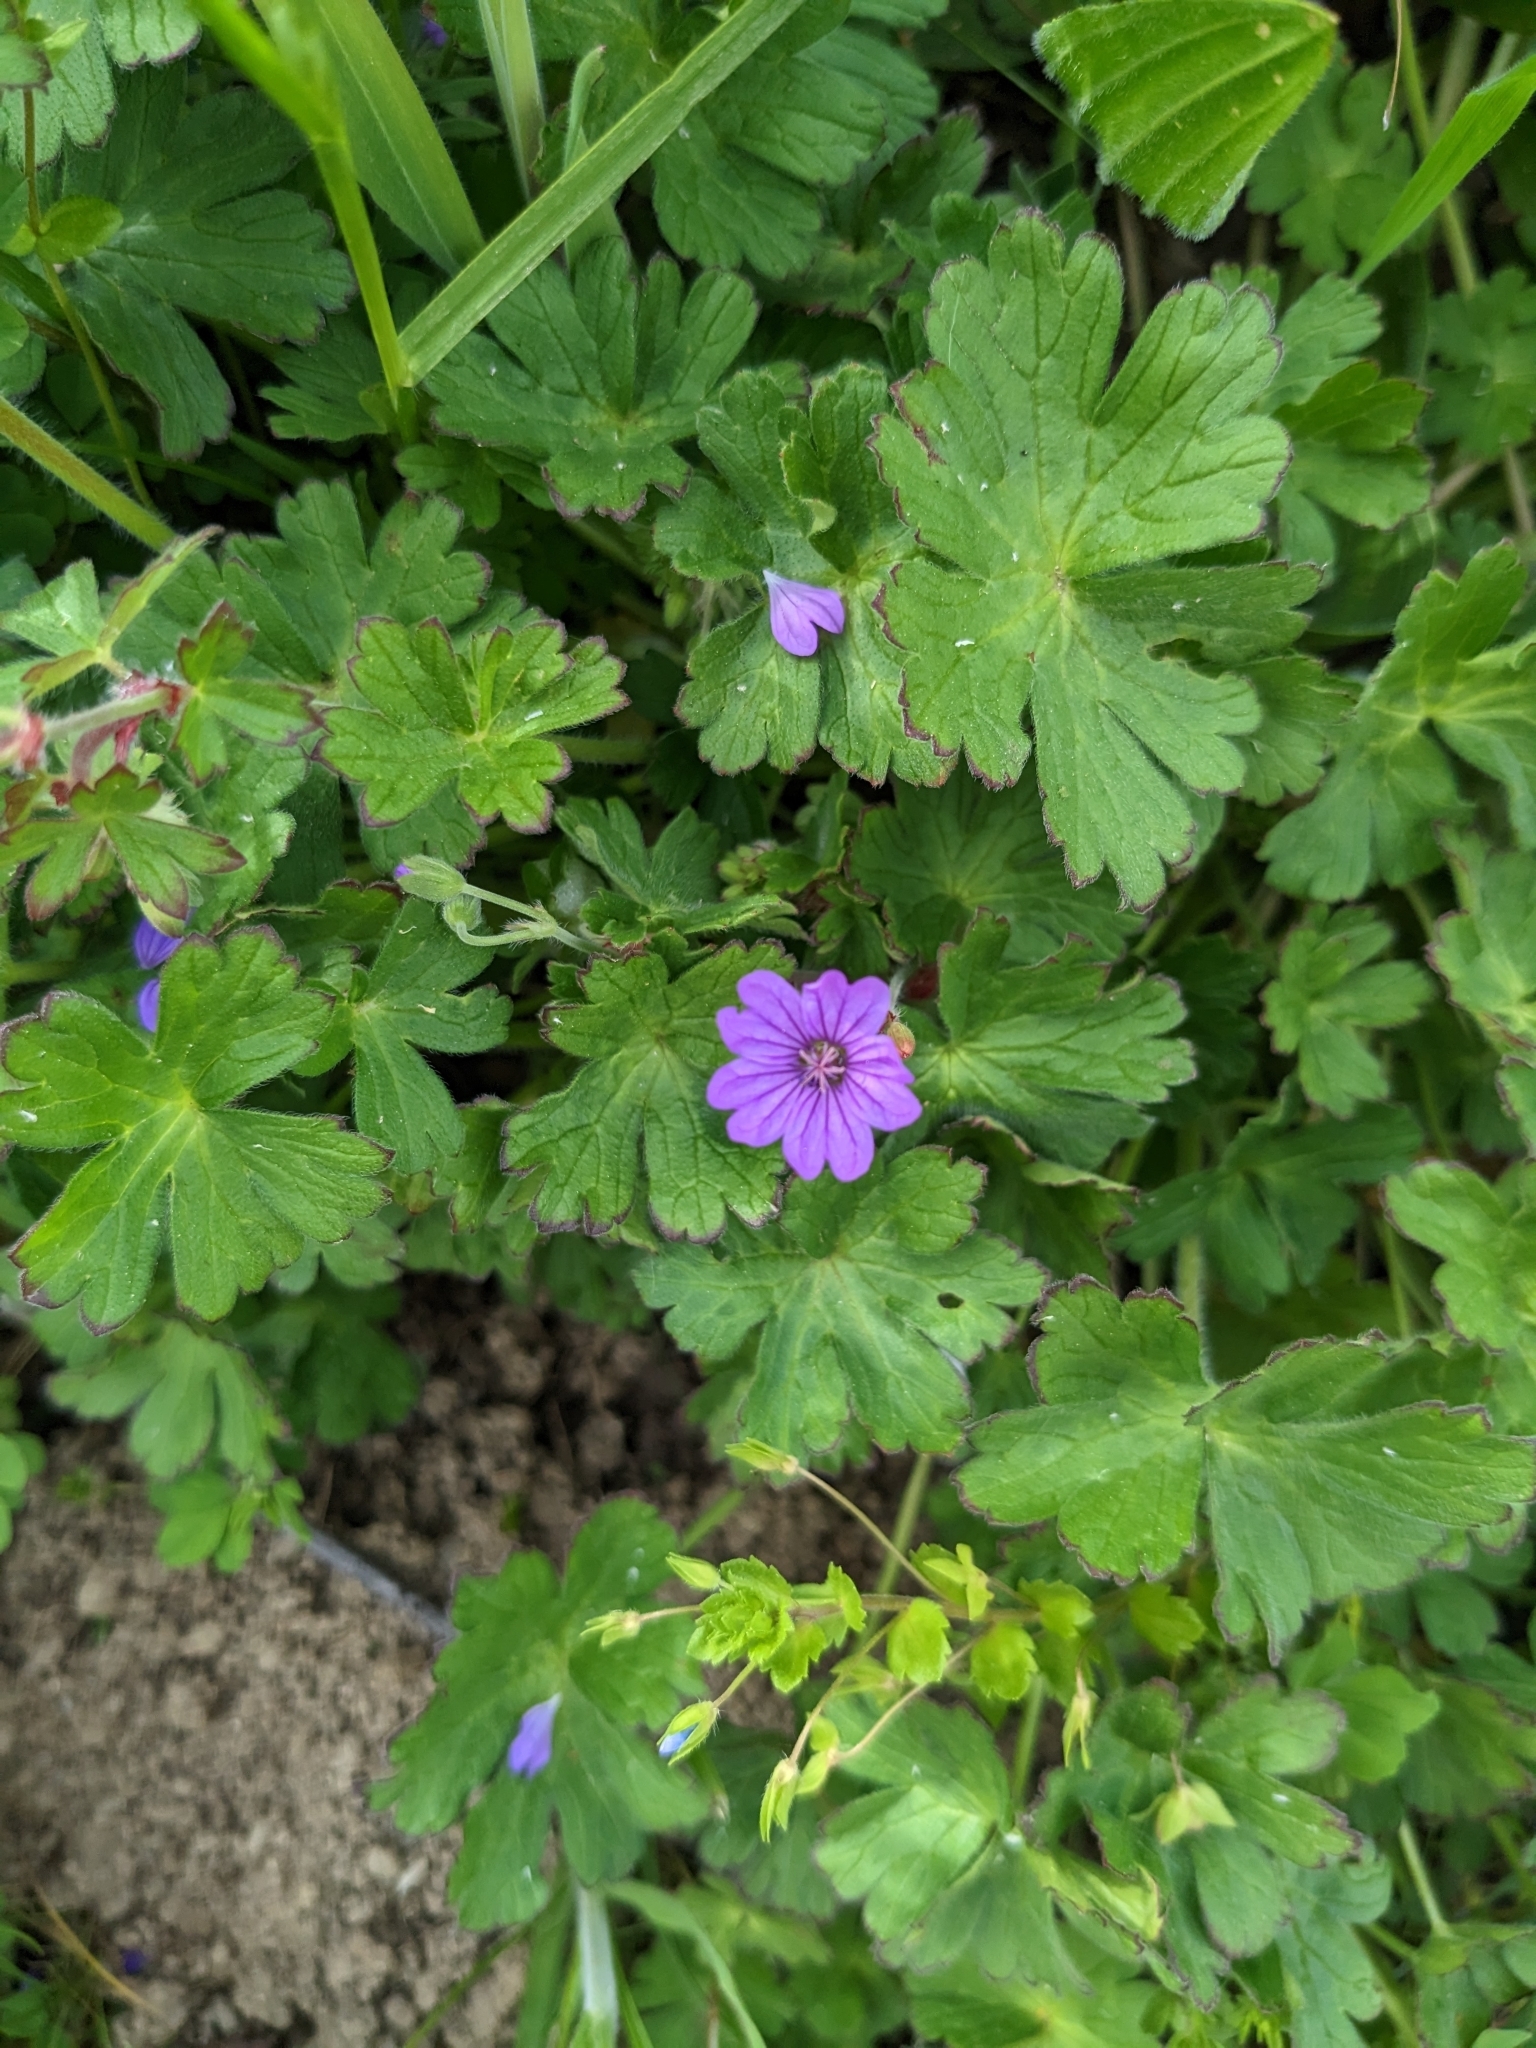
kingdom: Plantae
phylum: Tracheophyta
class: Magnoliopsida
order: Geraniales
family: Geraniaceae
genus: Geranium
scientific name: Geranium pyrenaicum
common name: Hedgerow crane's-bill
